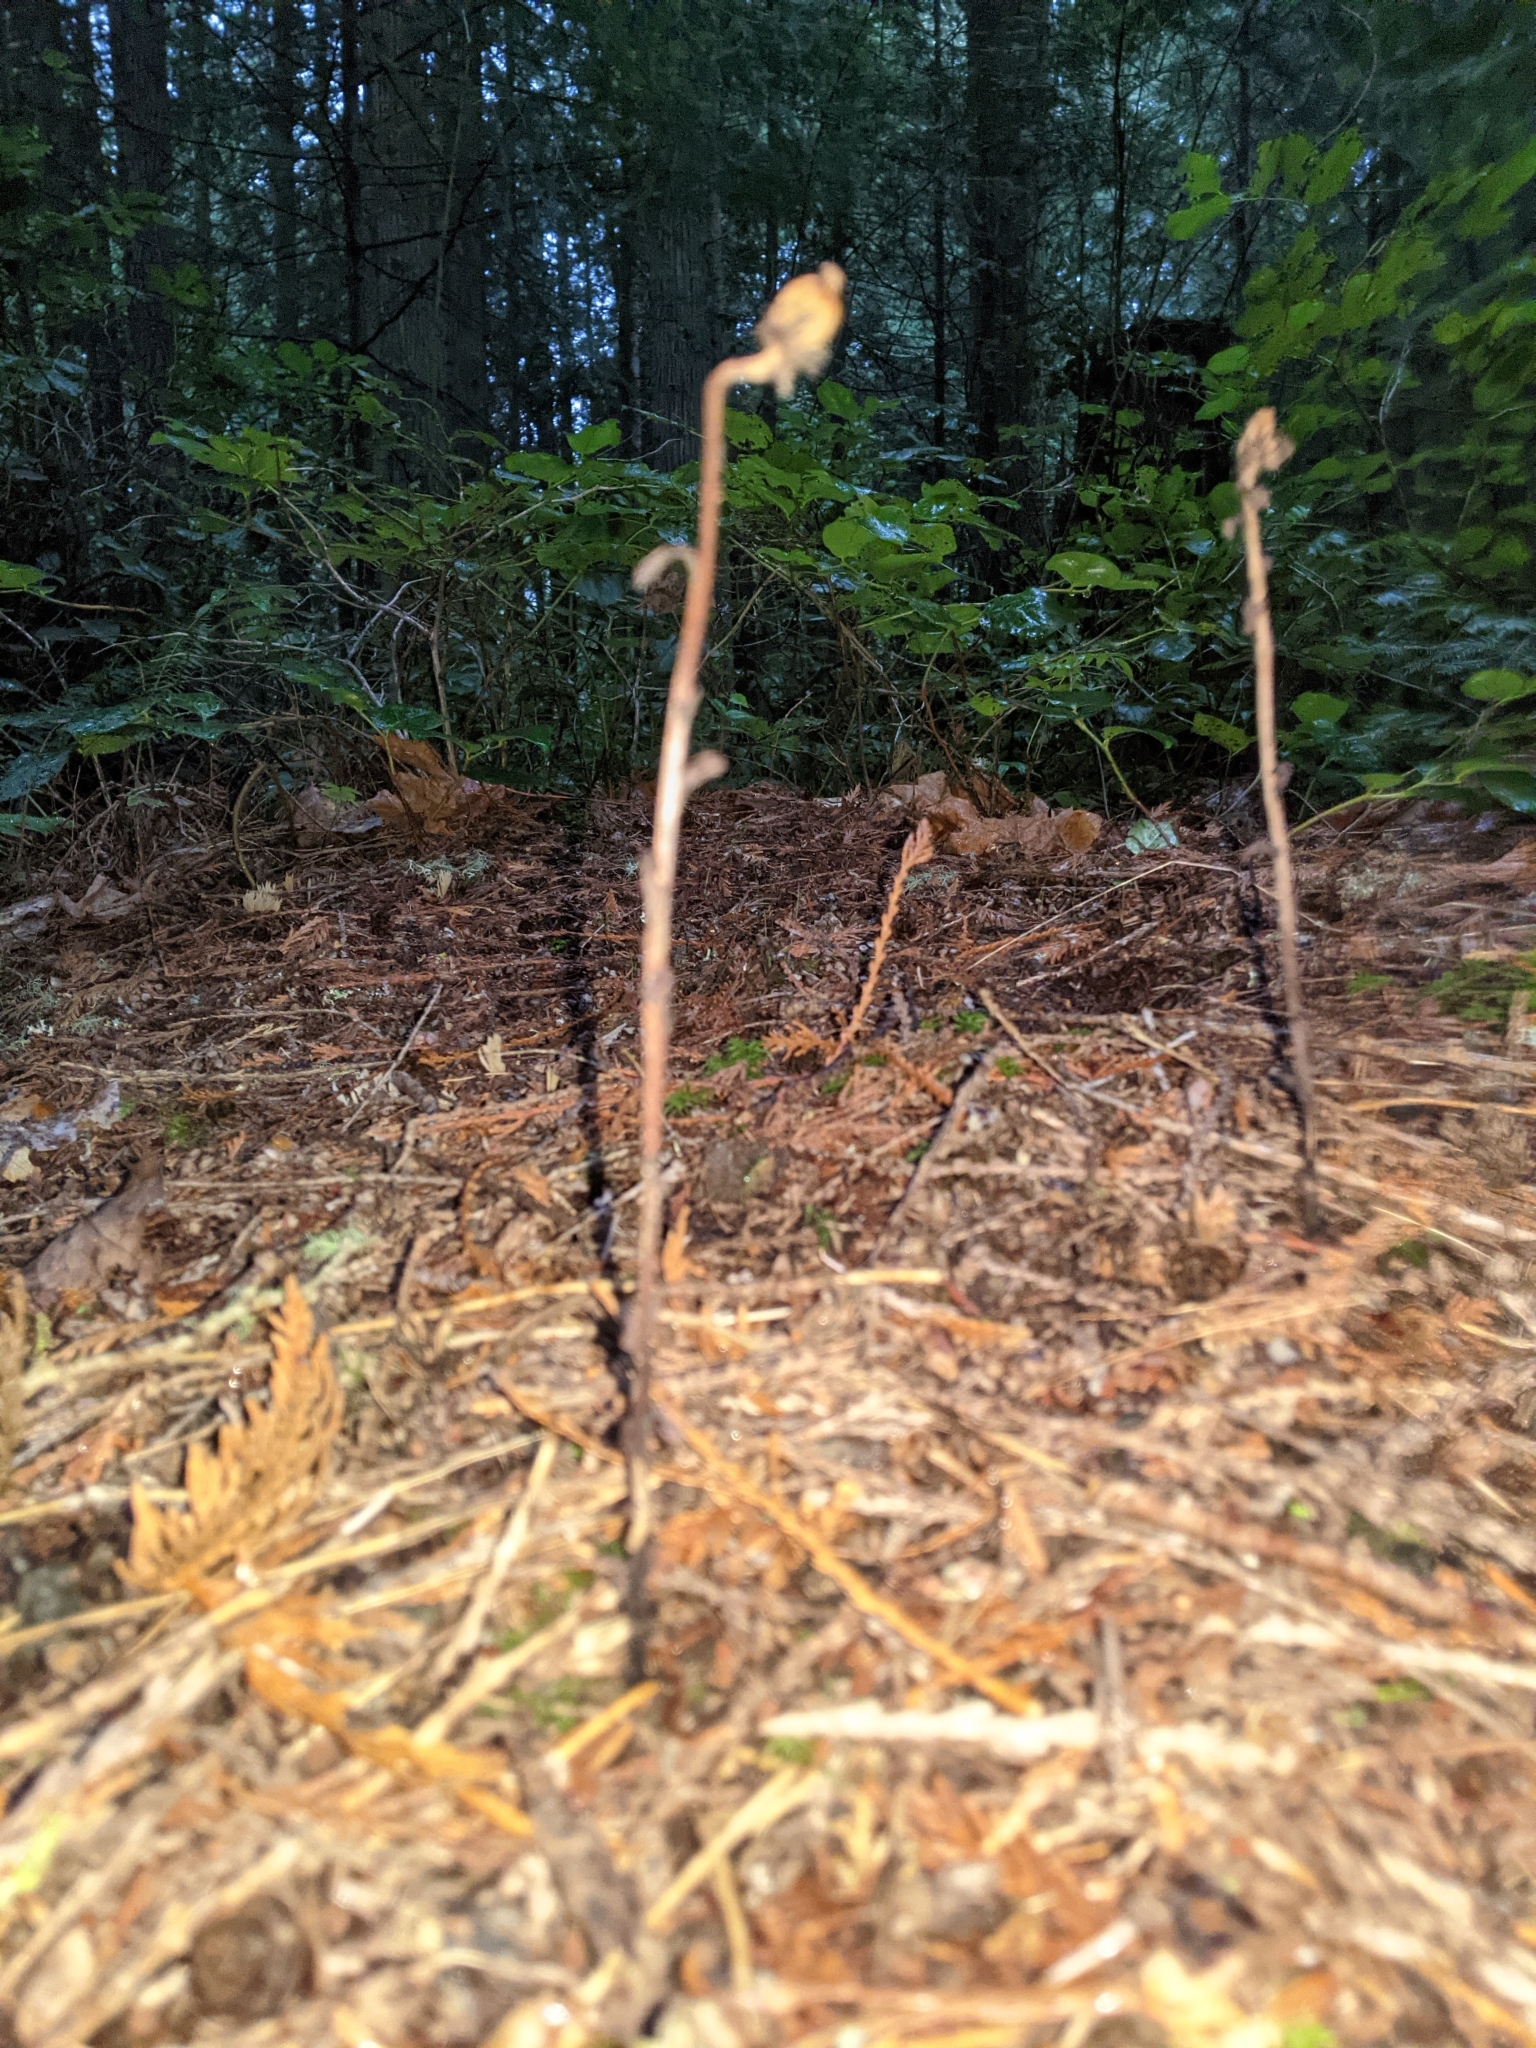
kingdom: Plantae
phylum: Tracheophyta
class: Magnoliopsida
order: Ericales
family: Ericaceae
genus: Monotropa
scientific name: Monotropa uniflora
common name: Convulsion root
